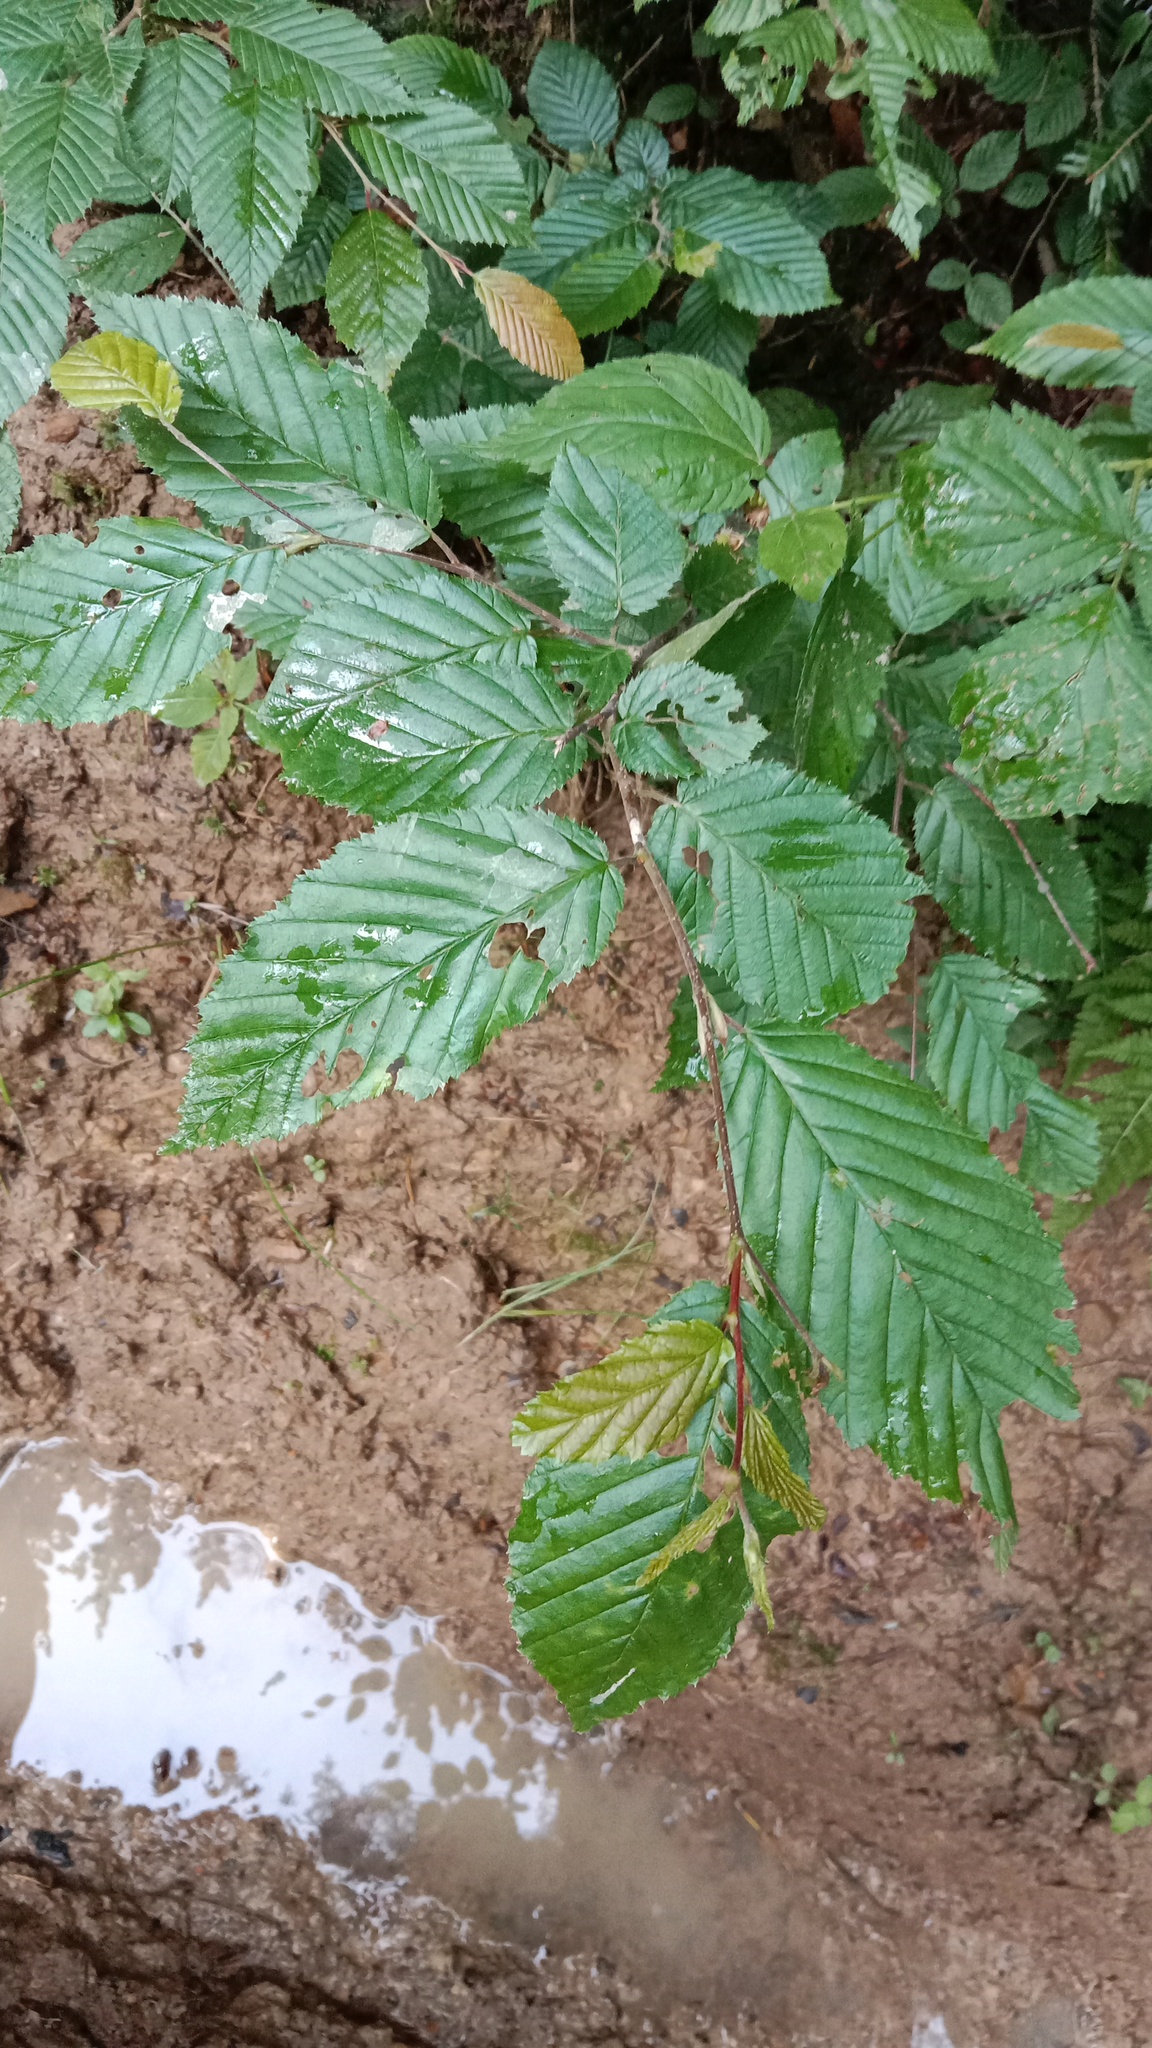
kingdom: Plantae
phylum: Tracheophyta
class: Magnoliopsida
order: Fagales
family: Betulaceae
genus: Carpinus
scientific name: Carpinus betulus
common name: Hornbeam
